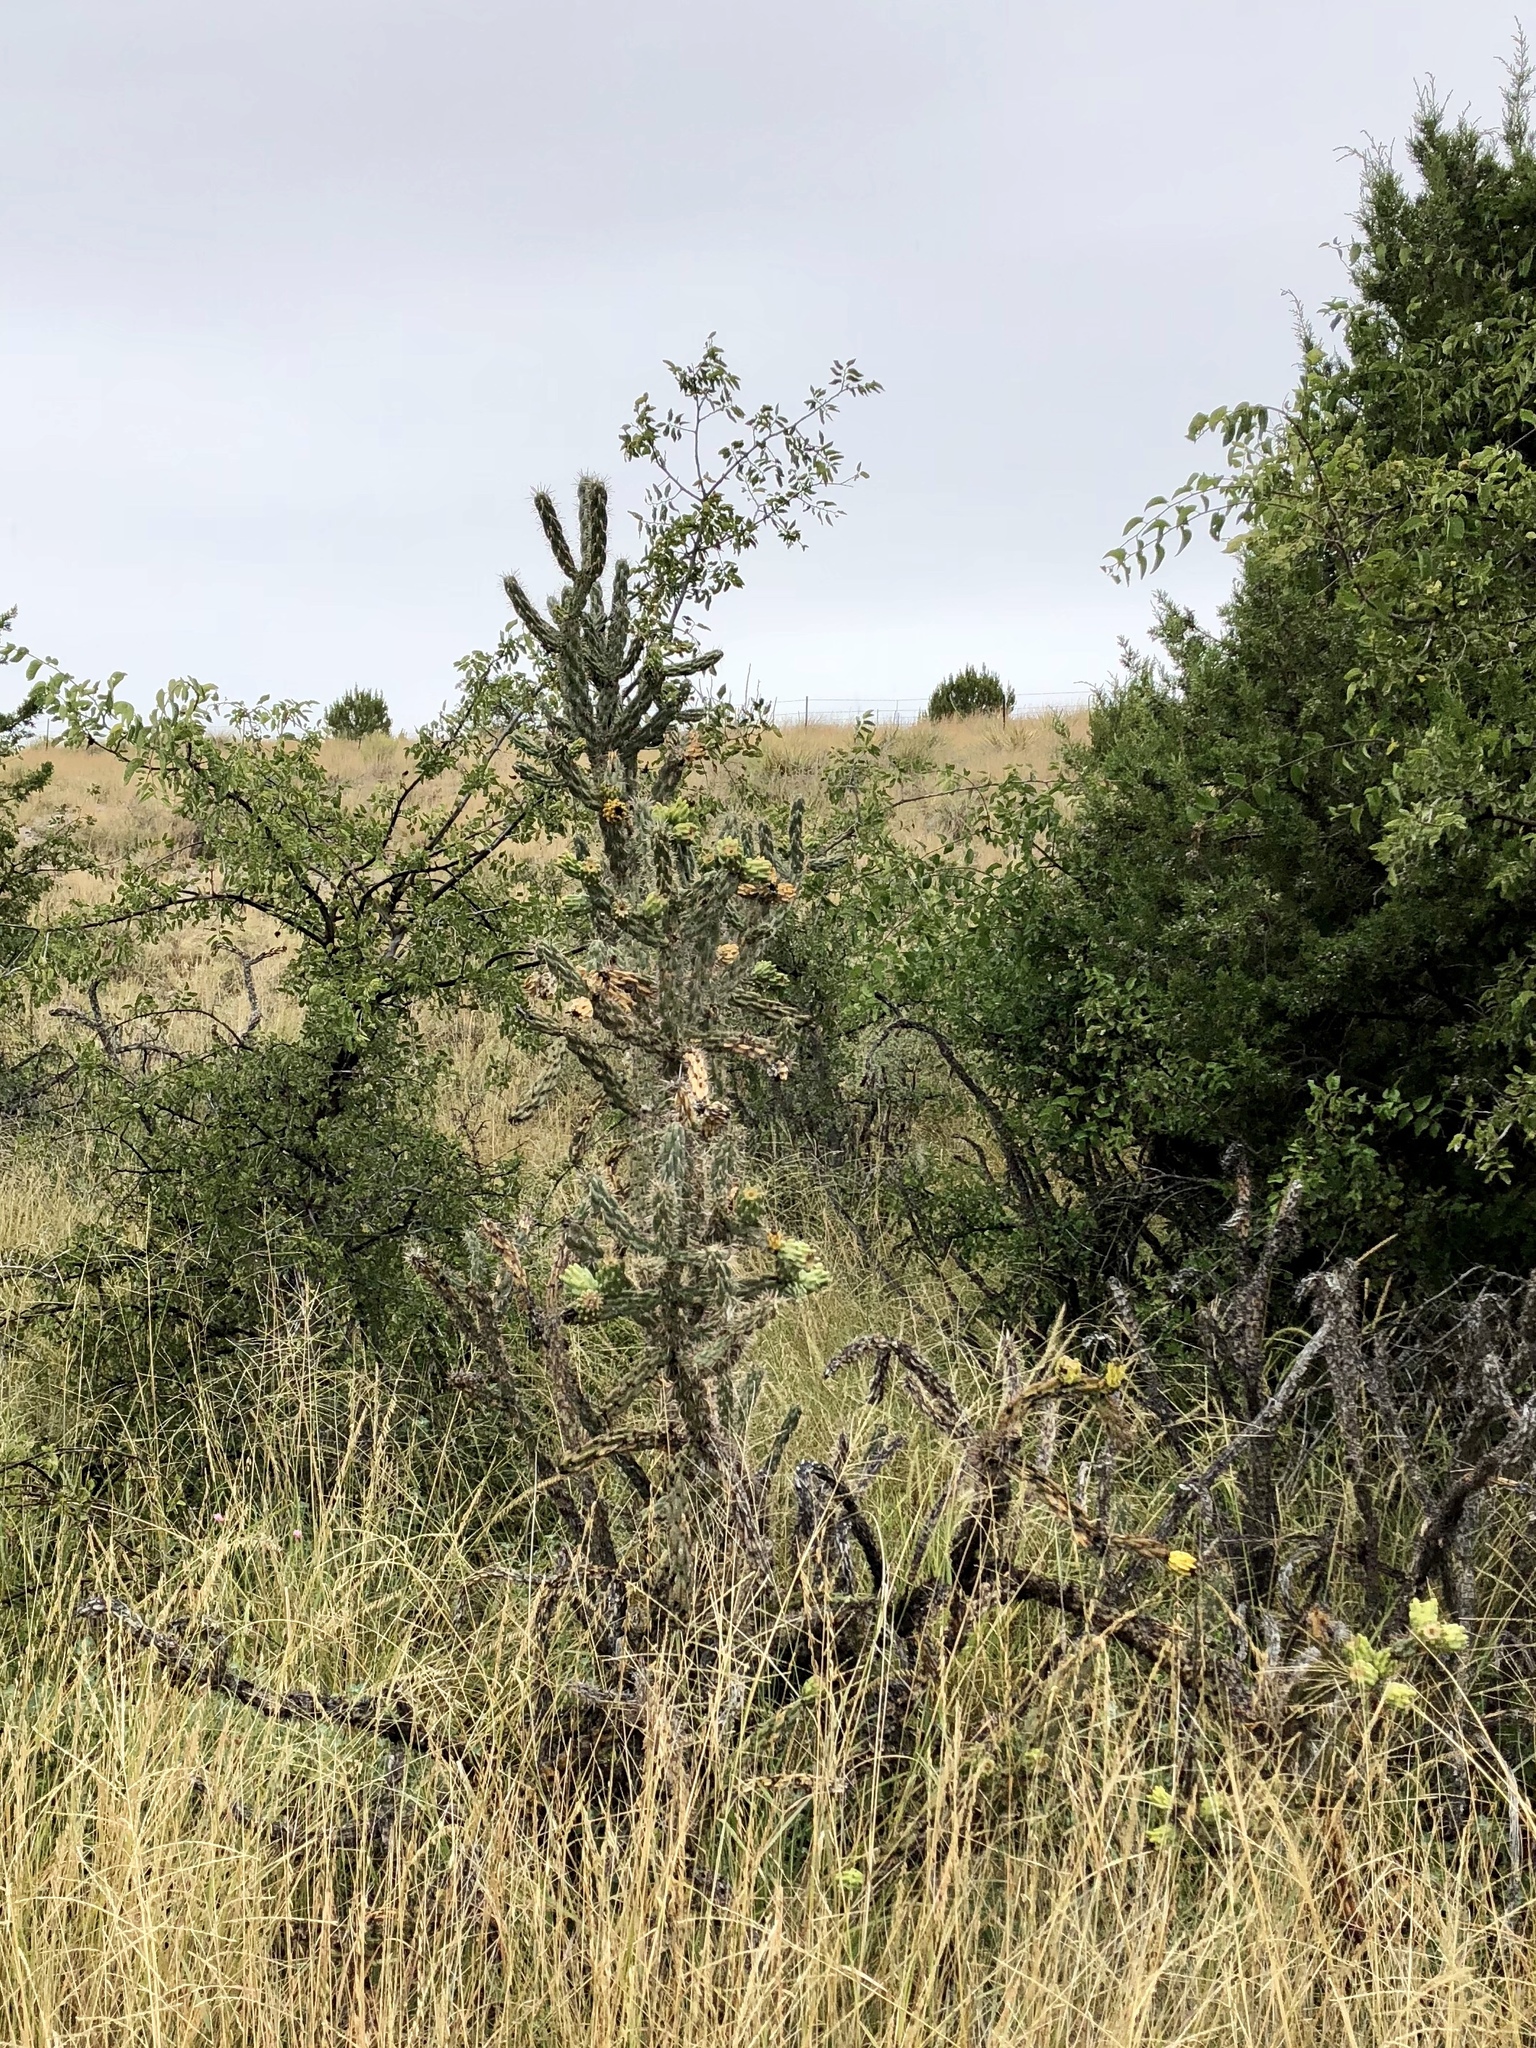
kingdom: Plantae
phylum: Tracheophyta
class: Magnoliopsida
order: Caryophyllales
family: Cactaceae
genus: Cylindropuntia
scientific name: Cylindropuntia imbricata
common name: Candelabrum cactus
